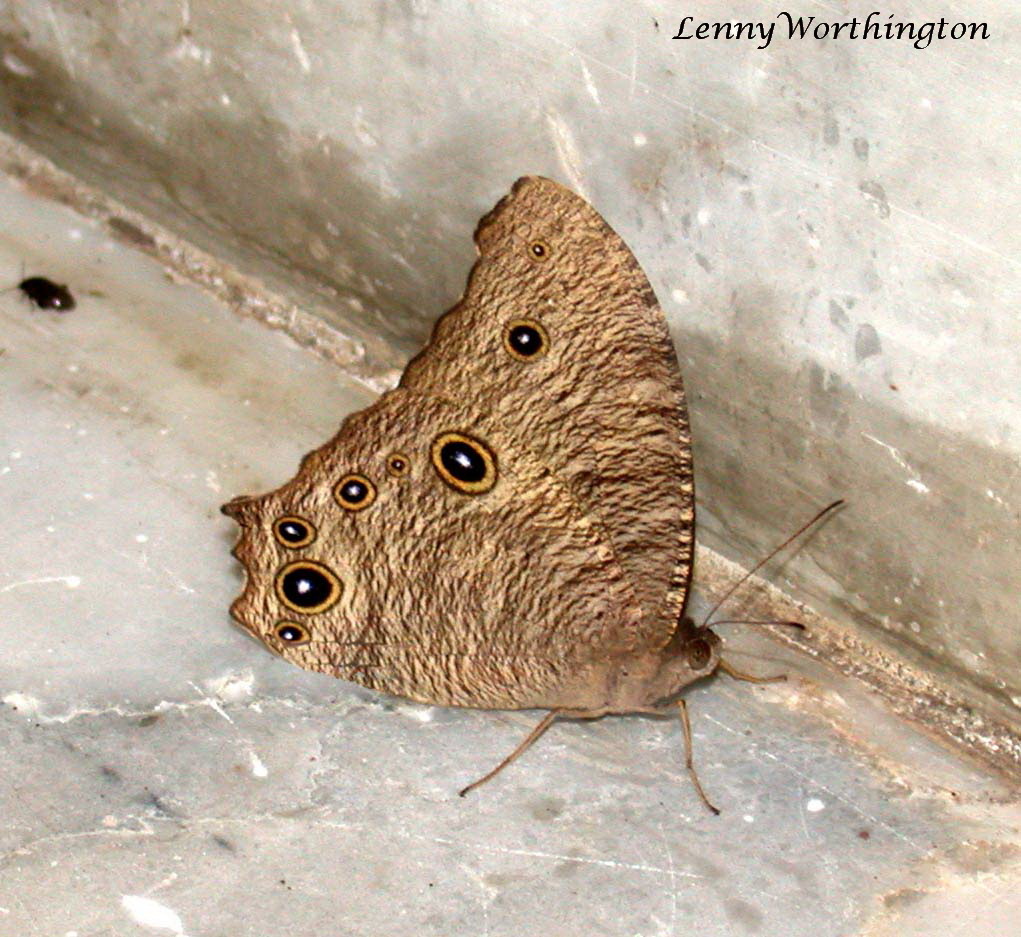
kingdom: Animalia
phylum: Arthropoda
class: Insecta
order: Lepidoptera
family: Nymphalidae
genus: Melanitis
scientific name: Melanitis leda
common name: Twilight brown
